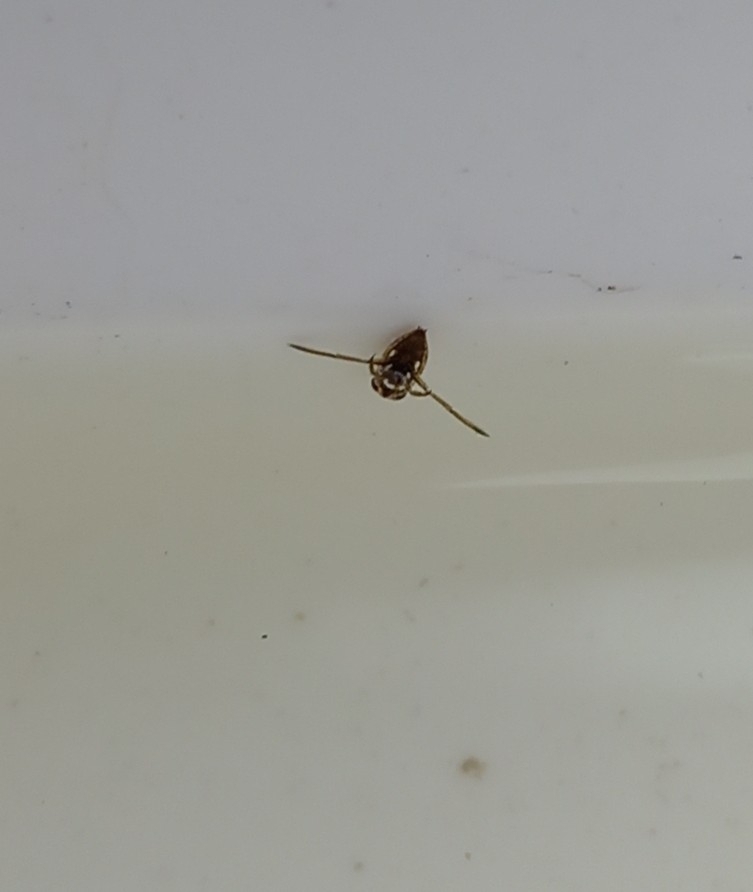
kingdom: Animalia
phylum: Arthropoda
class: Insecta
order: Hemiptera
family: Notonectidae
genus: Notonecta
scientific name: Notonecta
